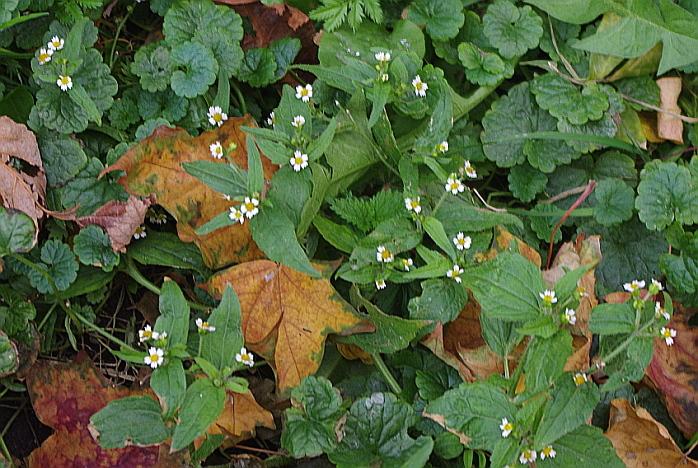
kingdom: Plantae
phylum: Tracheophyta
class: Magnoliopsida
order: Asterales
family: Asteraceae
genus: Galinsoga
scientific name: Galinsoga quadriradiata
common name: Shaggy soldier
